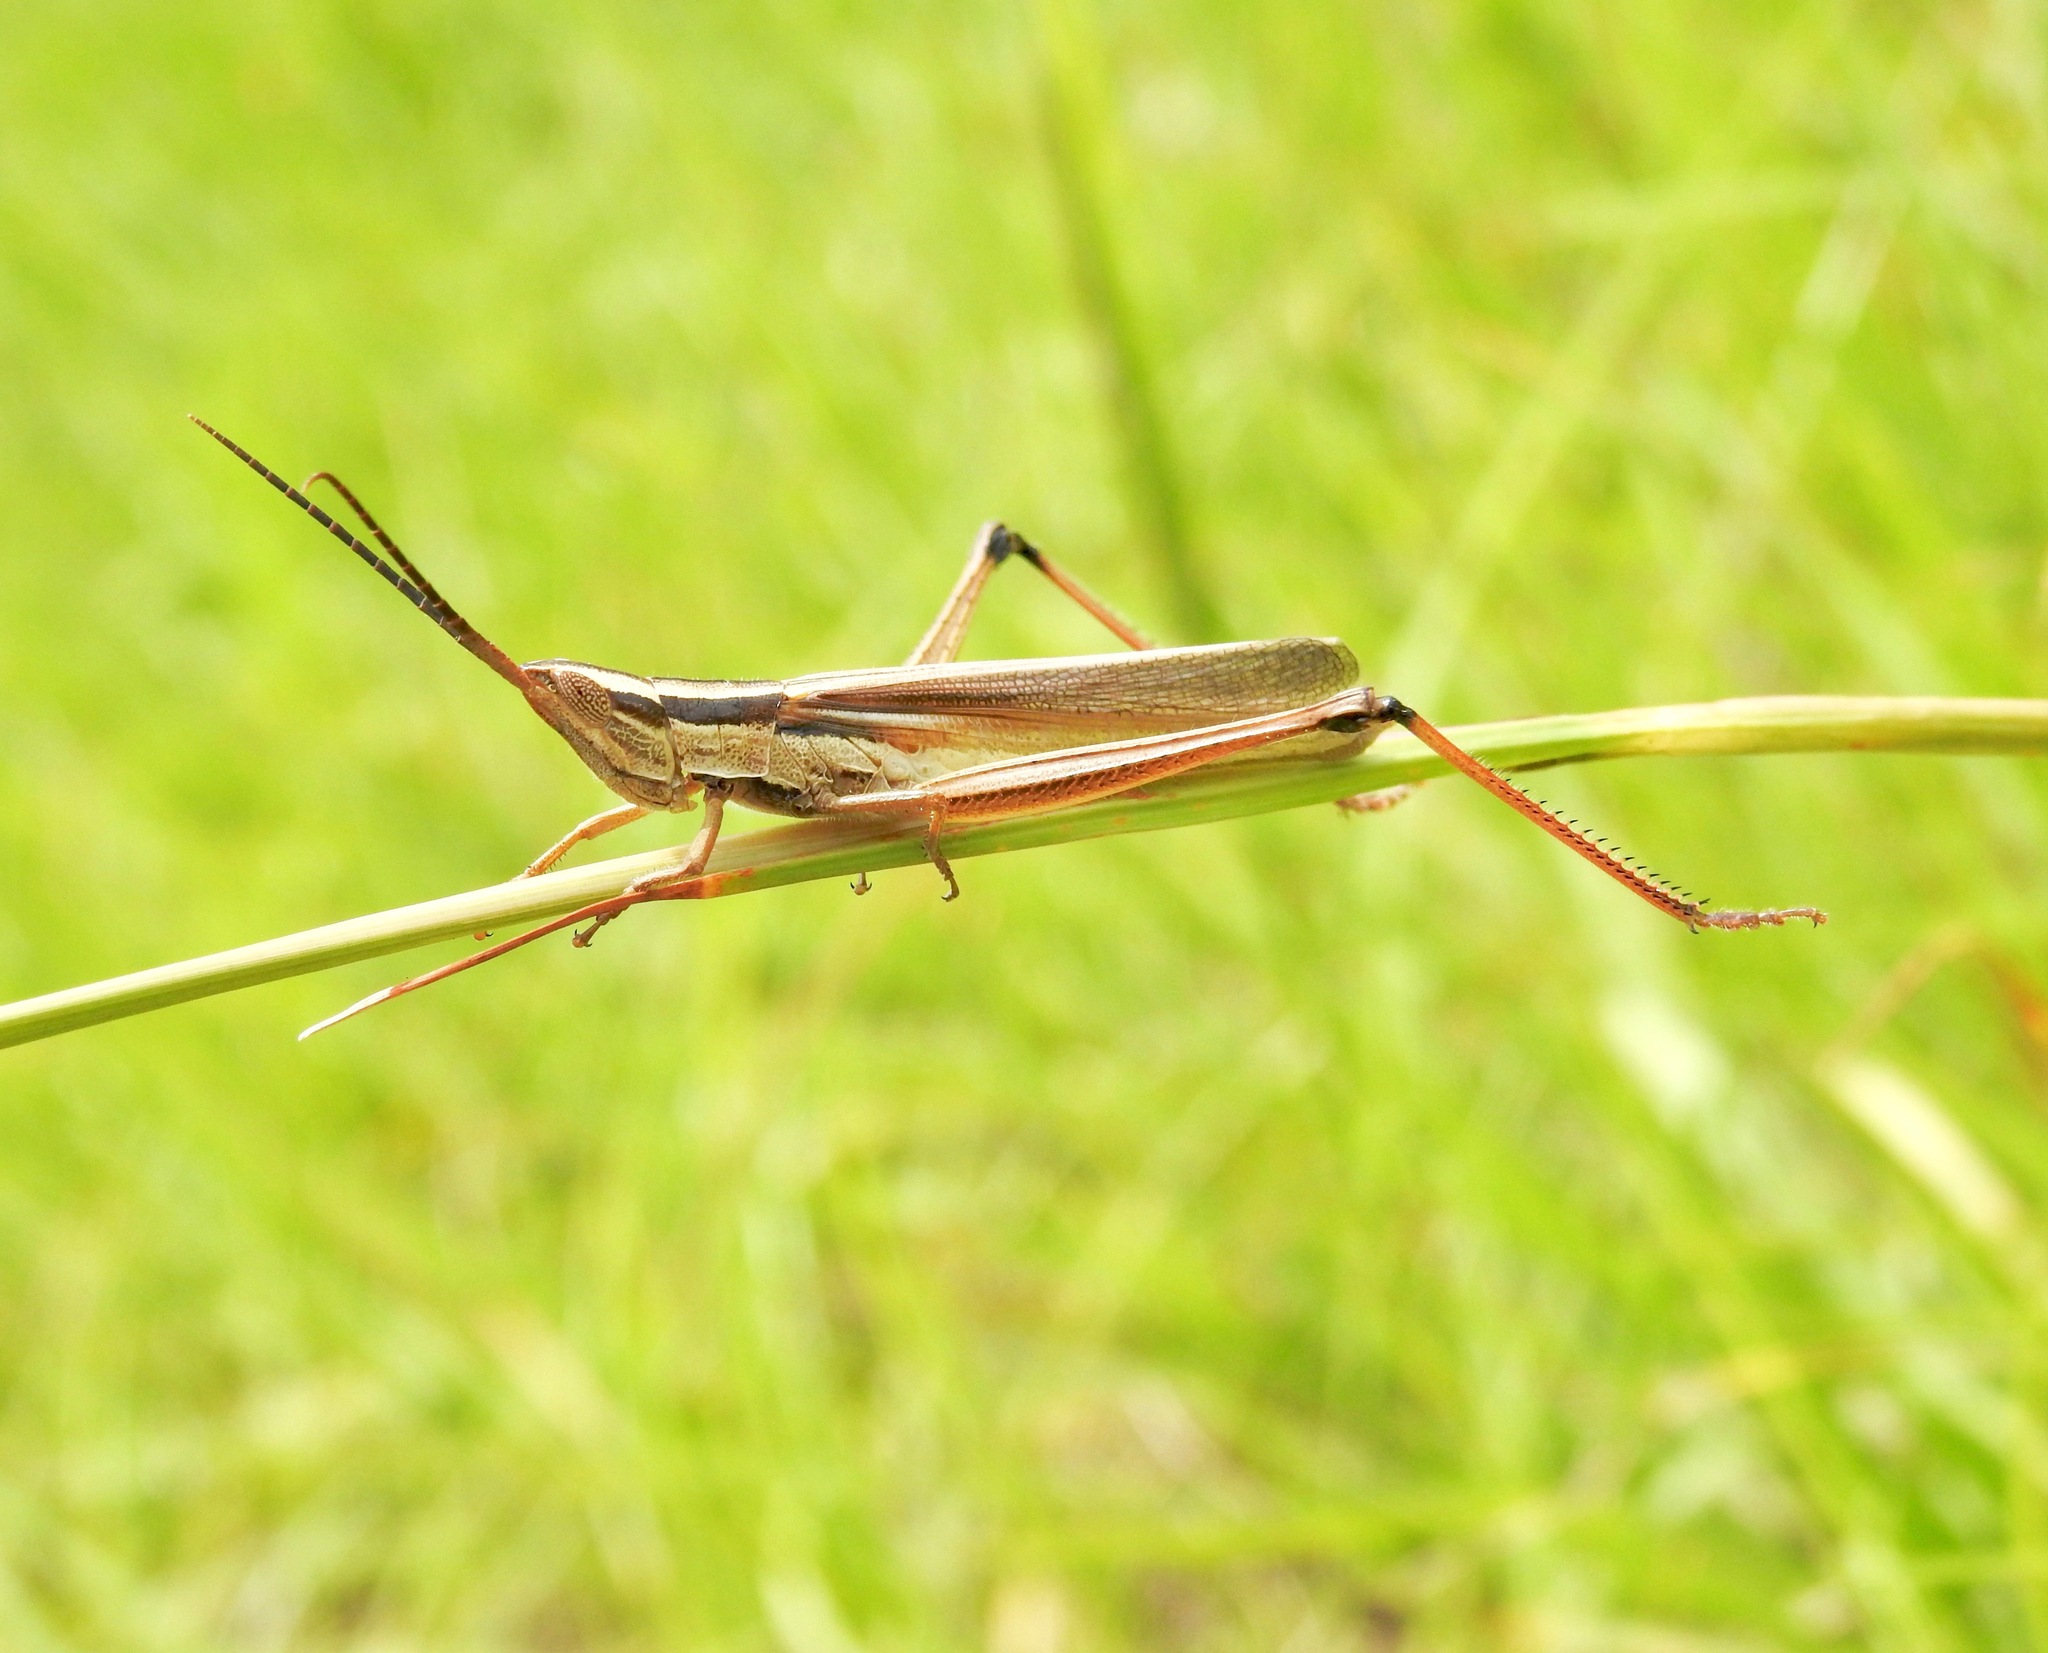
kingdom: Animalia
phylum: Arthropoda
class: Insecta
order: Orthoptera
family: Acrididae
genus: Mermiria
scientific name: Mermiria intertexta
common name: Eastern mermiria grasshopper
